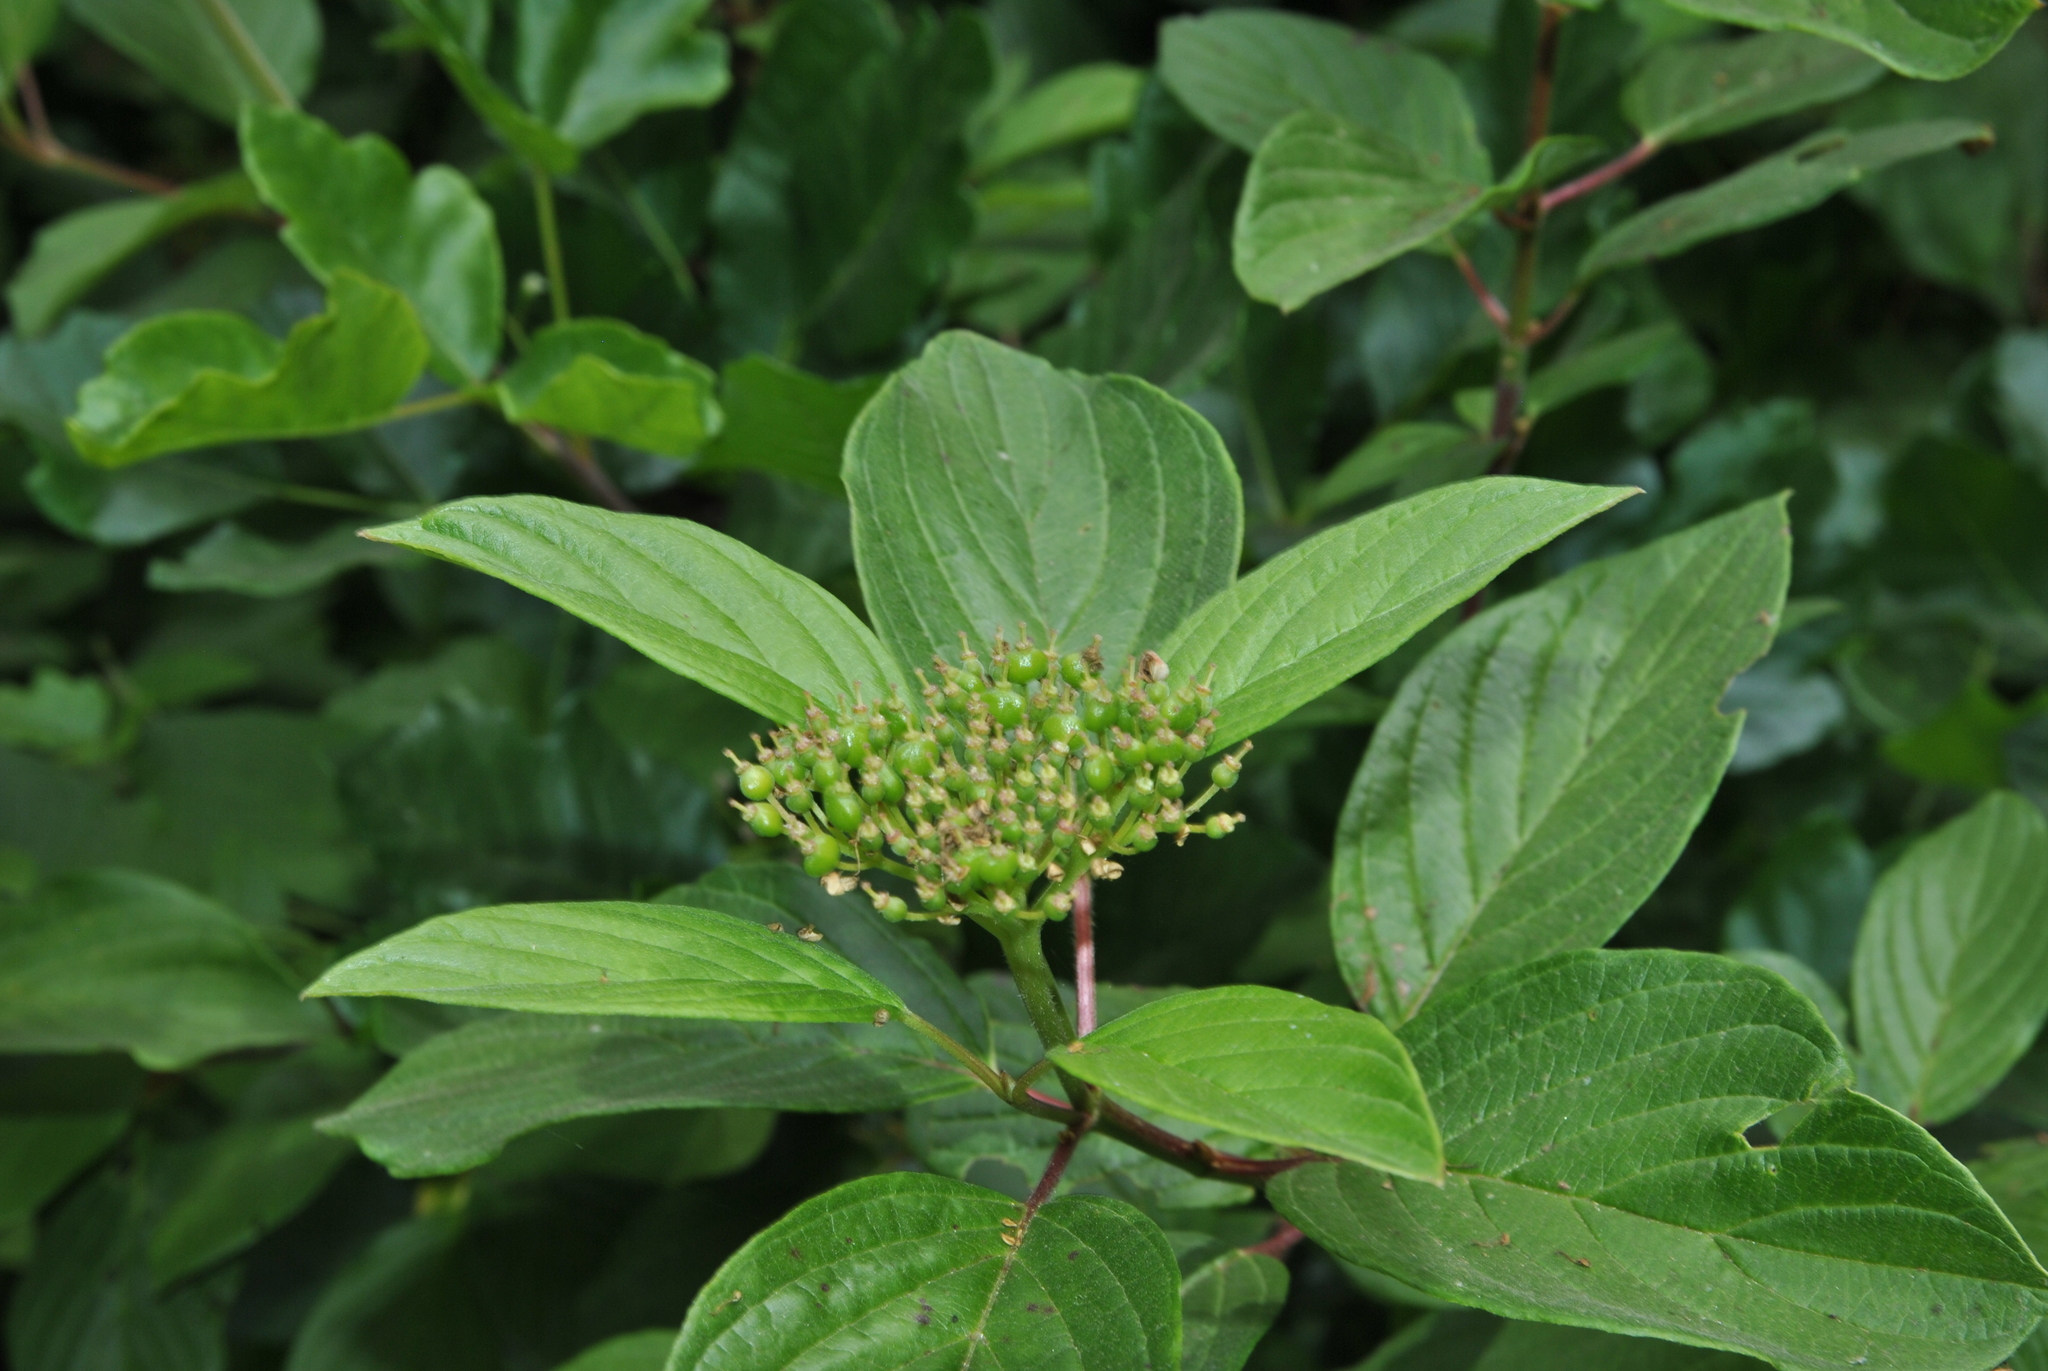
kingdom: Plantae
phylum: Tracheophyta
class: Magnoliopsida
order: Cornales
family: Cornaceae
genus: Cornus
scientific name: Cornus sericea
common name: Red-osier dogwood
